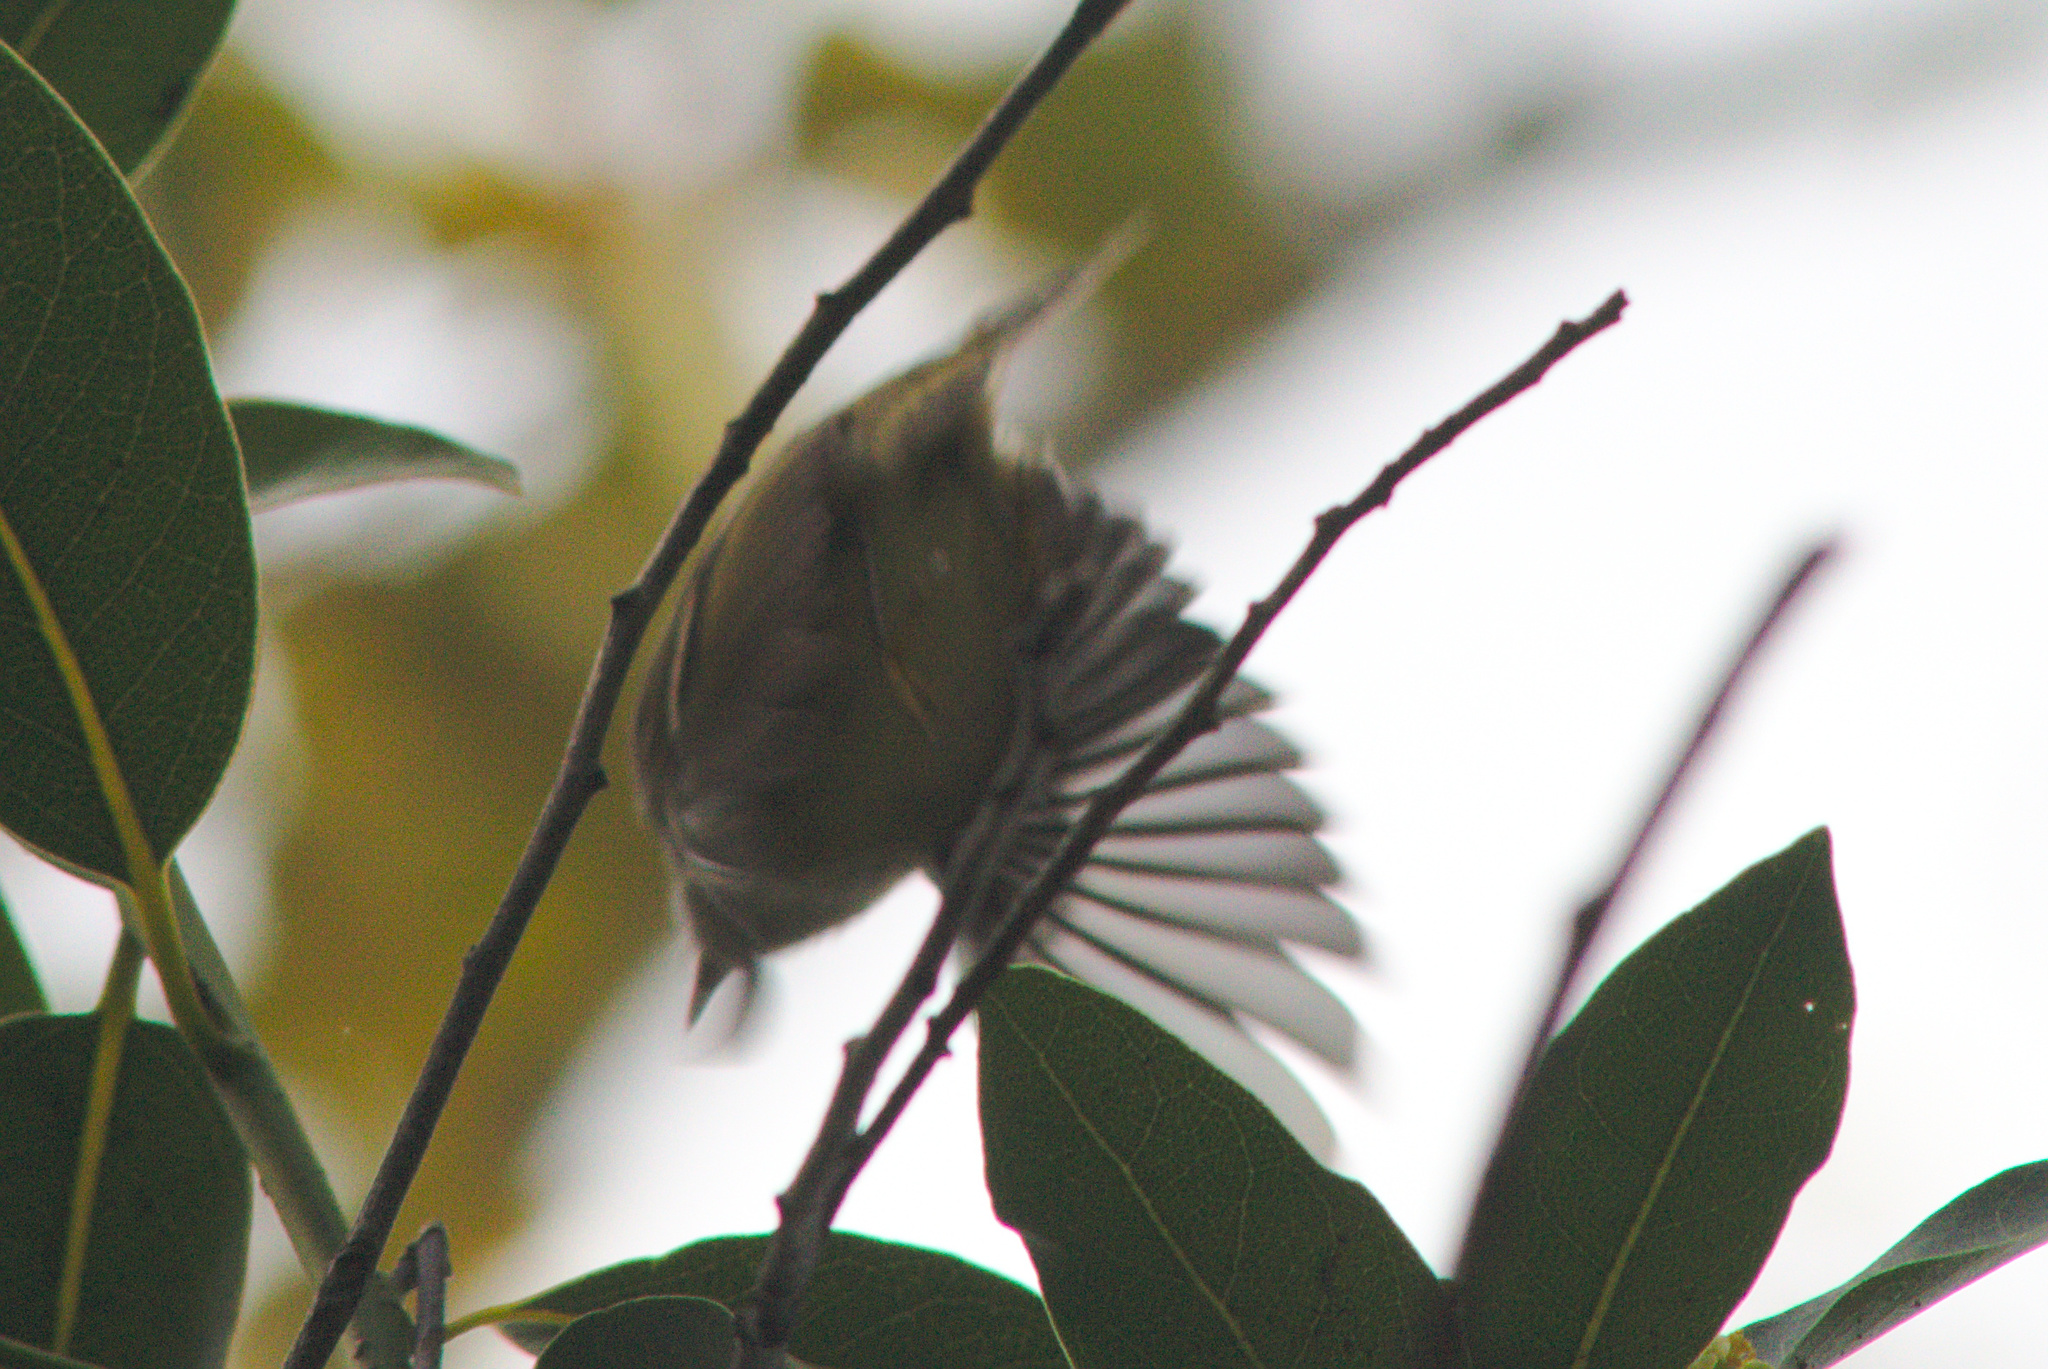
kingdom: Animalia
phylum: Chordata
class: Aves
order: Passeriformes
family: Regulidae
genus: Regulus
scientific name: Regulus calendula
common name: Ruby-crowned kinglet
